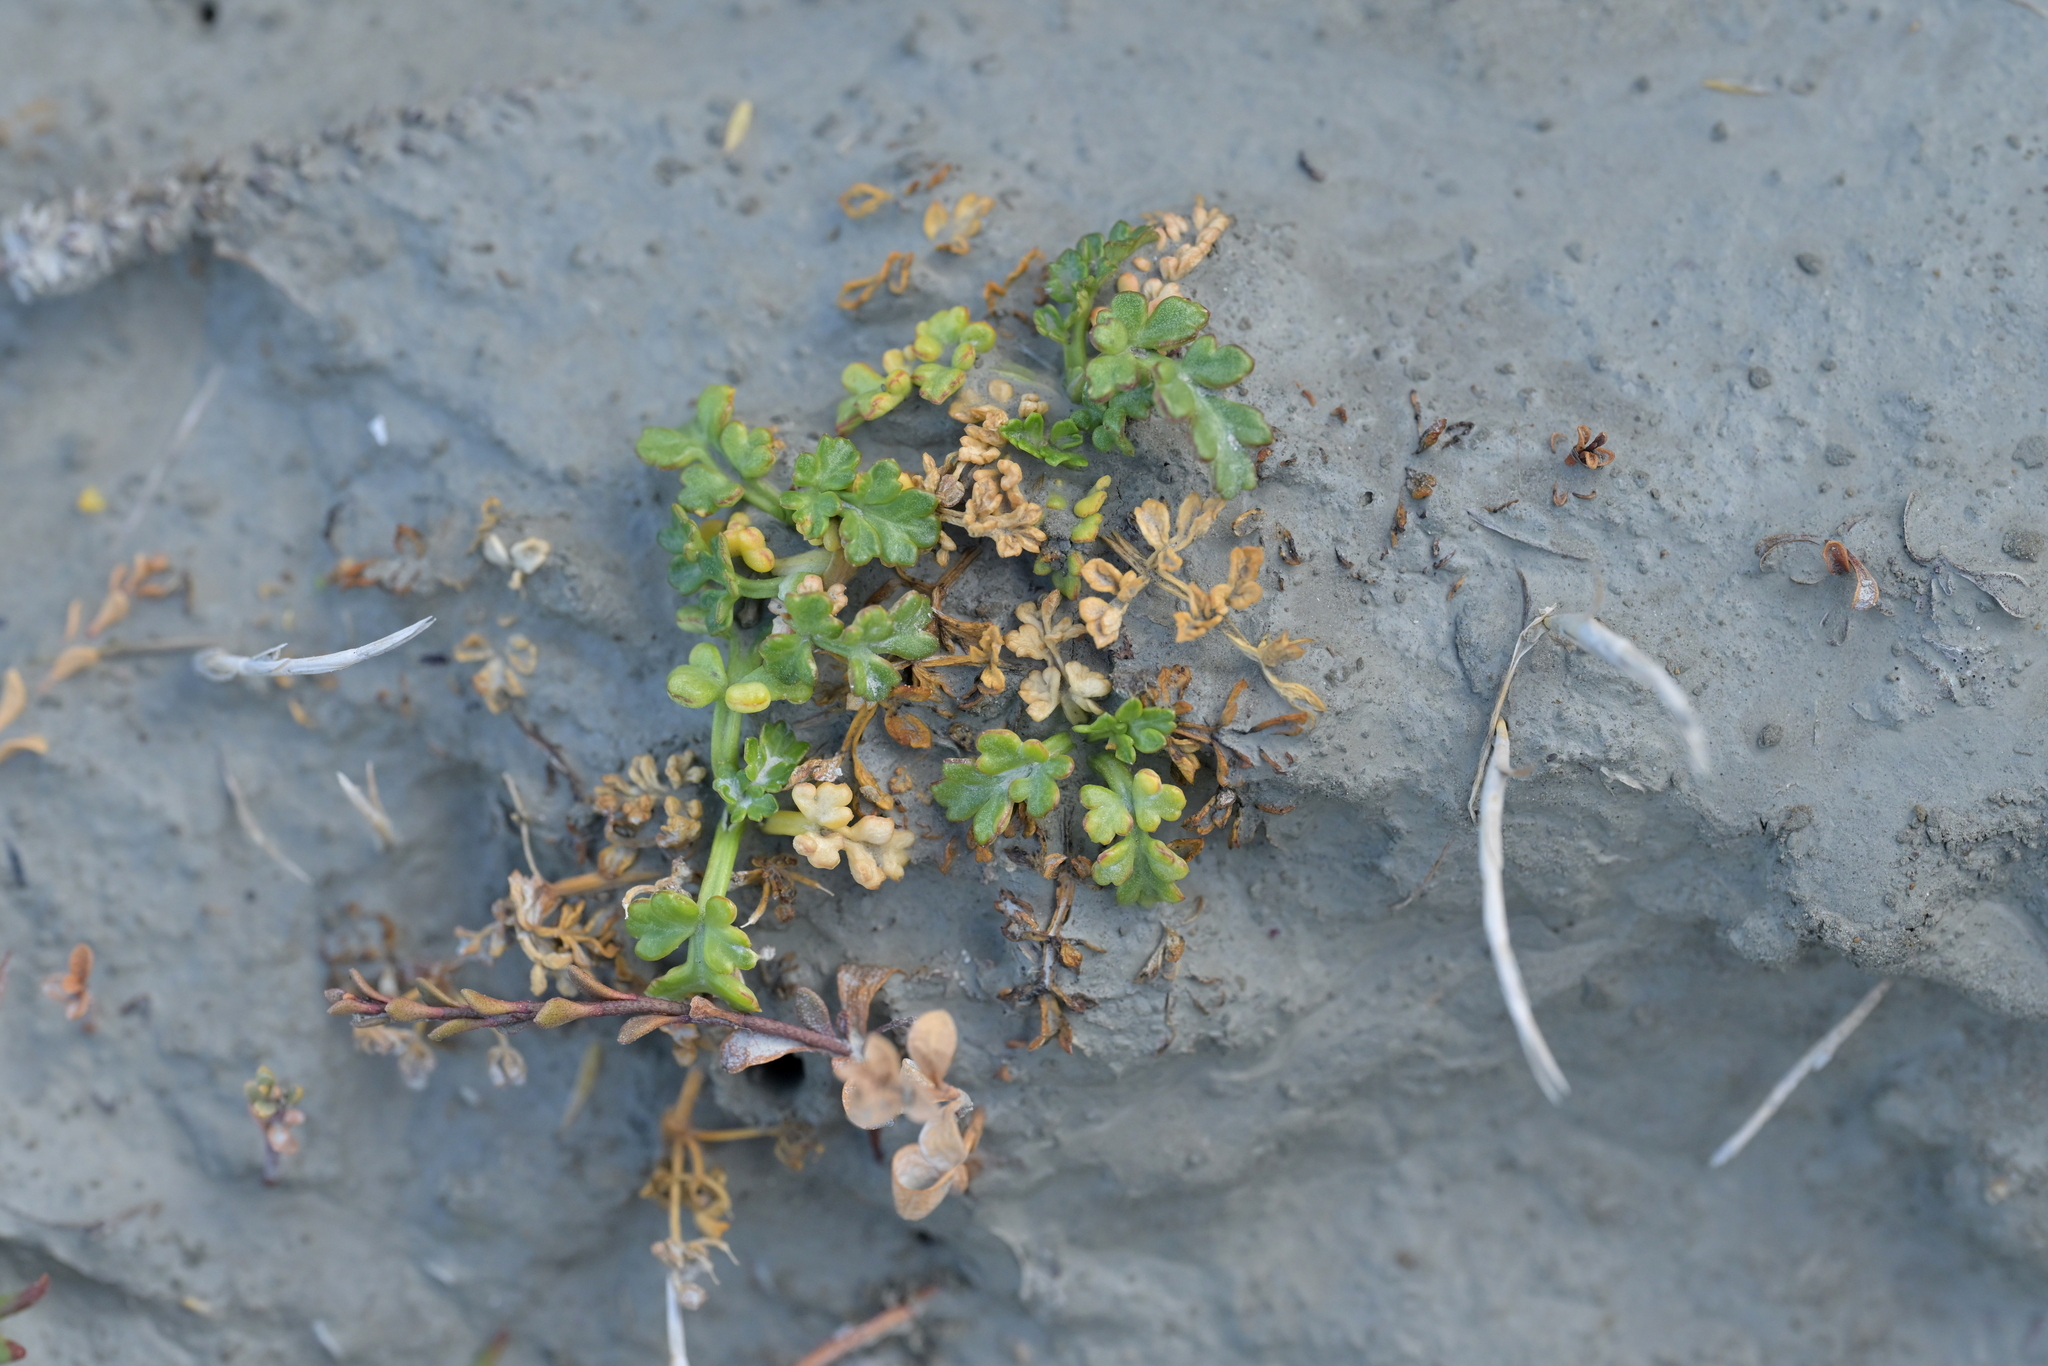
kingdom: Plantae
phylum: Tracheophyta
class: Magnoliopsida
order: Apiales
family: Apiaceae
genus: Apium
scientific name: Apium prostratum
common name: Prostrate marshwort
